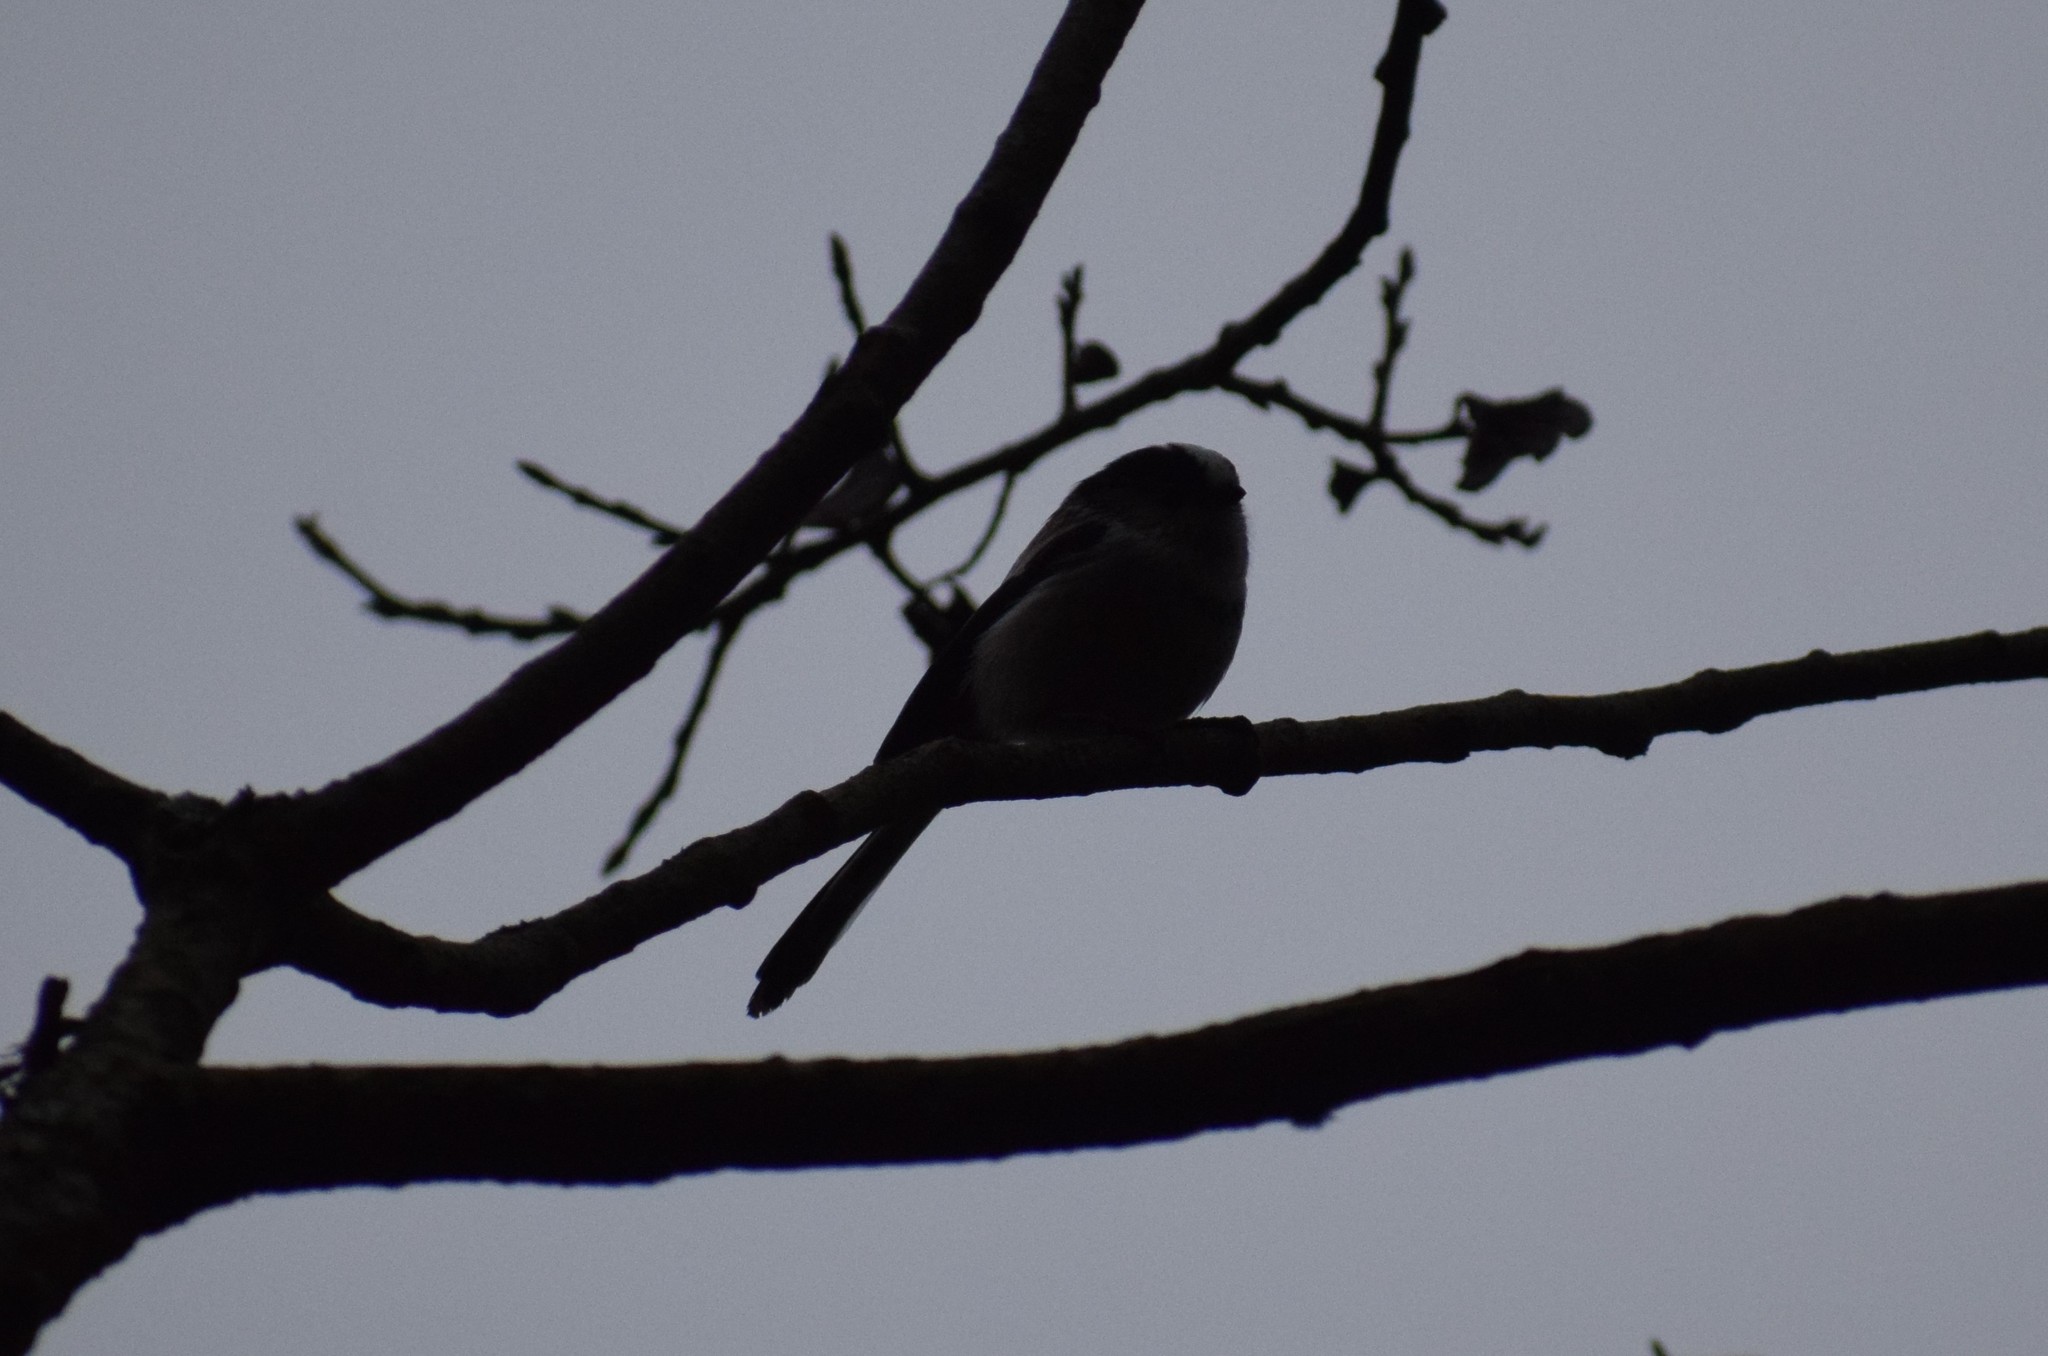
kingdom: Animalia
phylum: Chordata
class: Aves
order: Passeriformes
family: Aegithalidae
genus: Aegithalos
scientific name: Aegithalos caudatus
